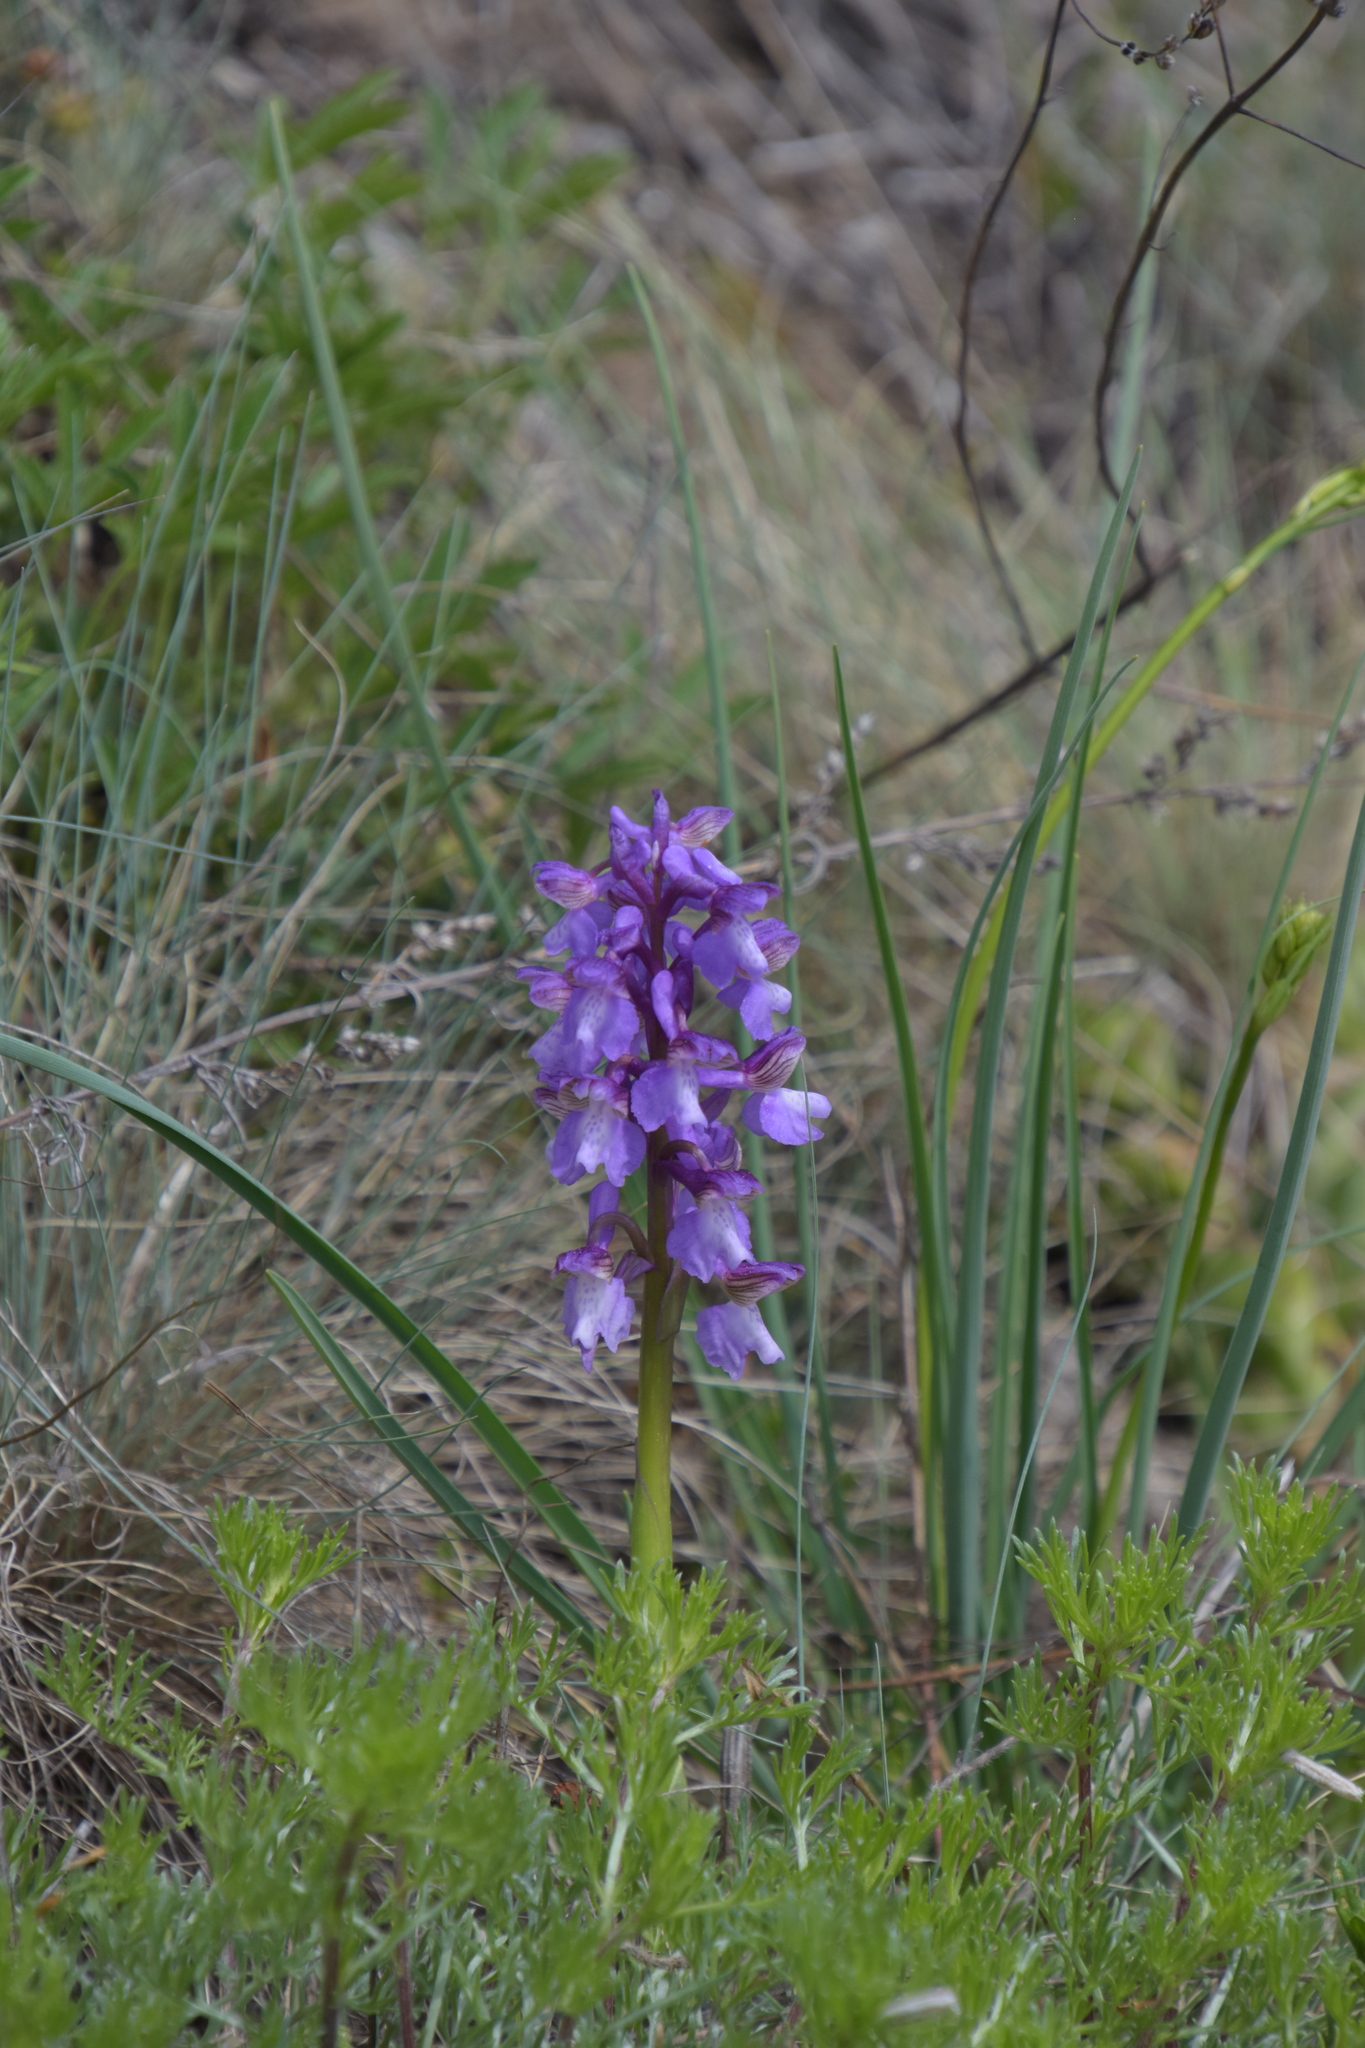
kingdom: Plantae
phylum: Tracheophyta
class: Liliopsida
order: Asparagales
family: Orchidaceae
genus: Anacamptis
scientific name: Anacamptis morio
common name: Green-winged orchid
